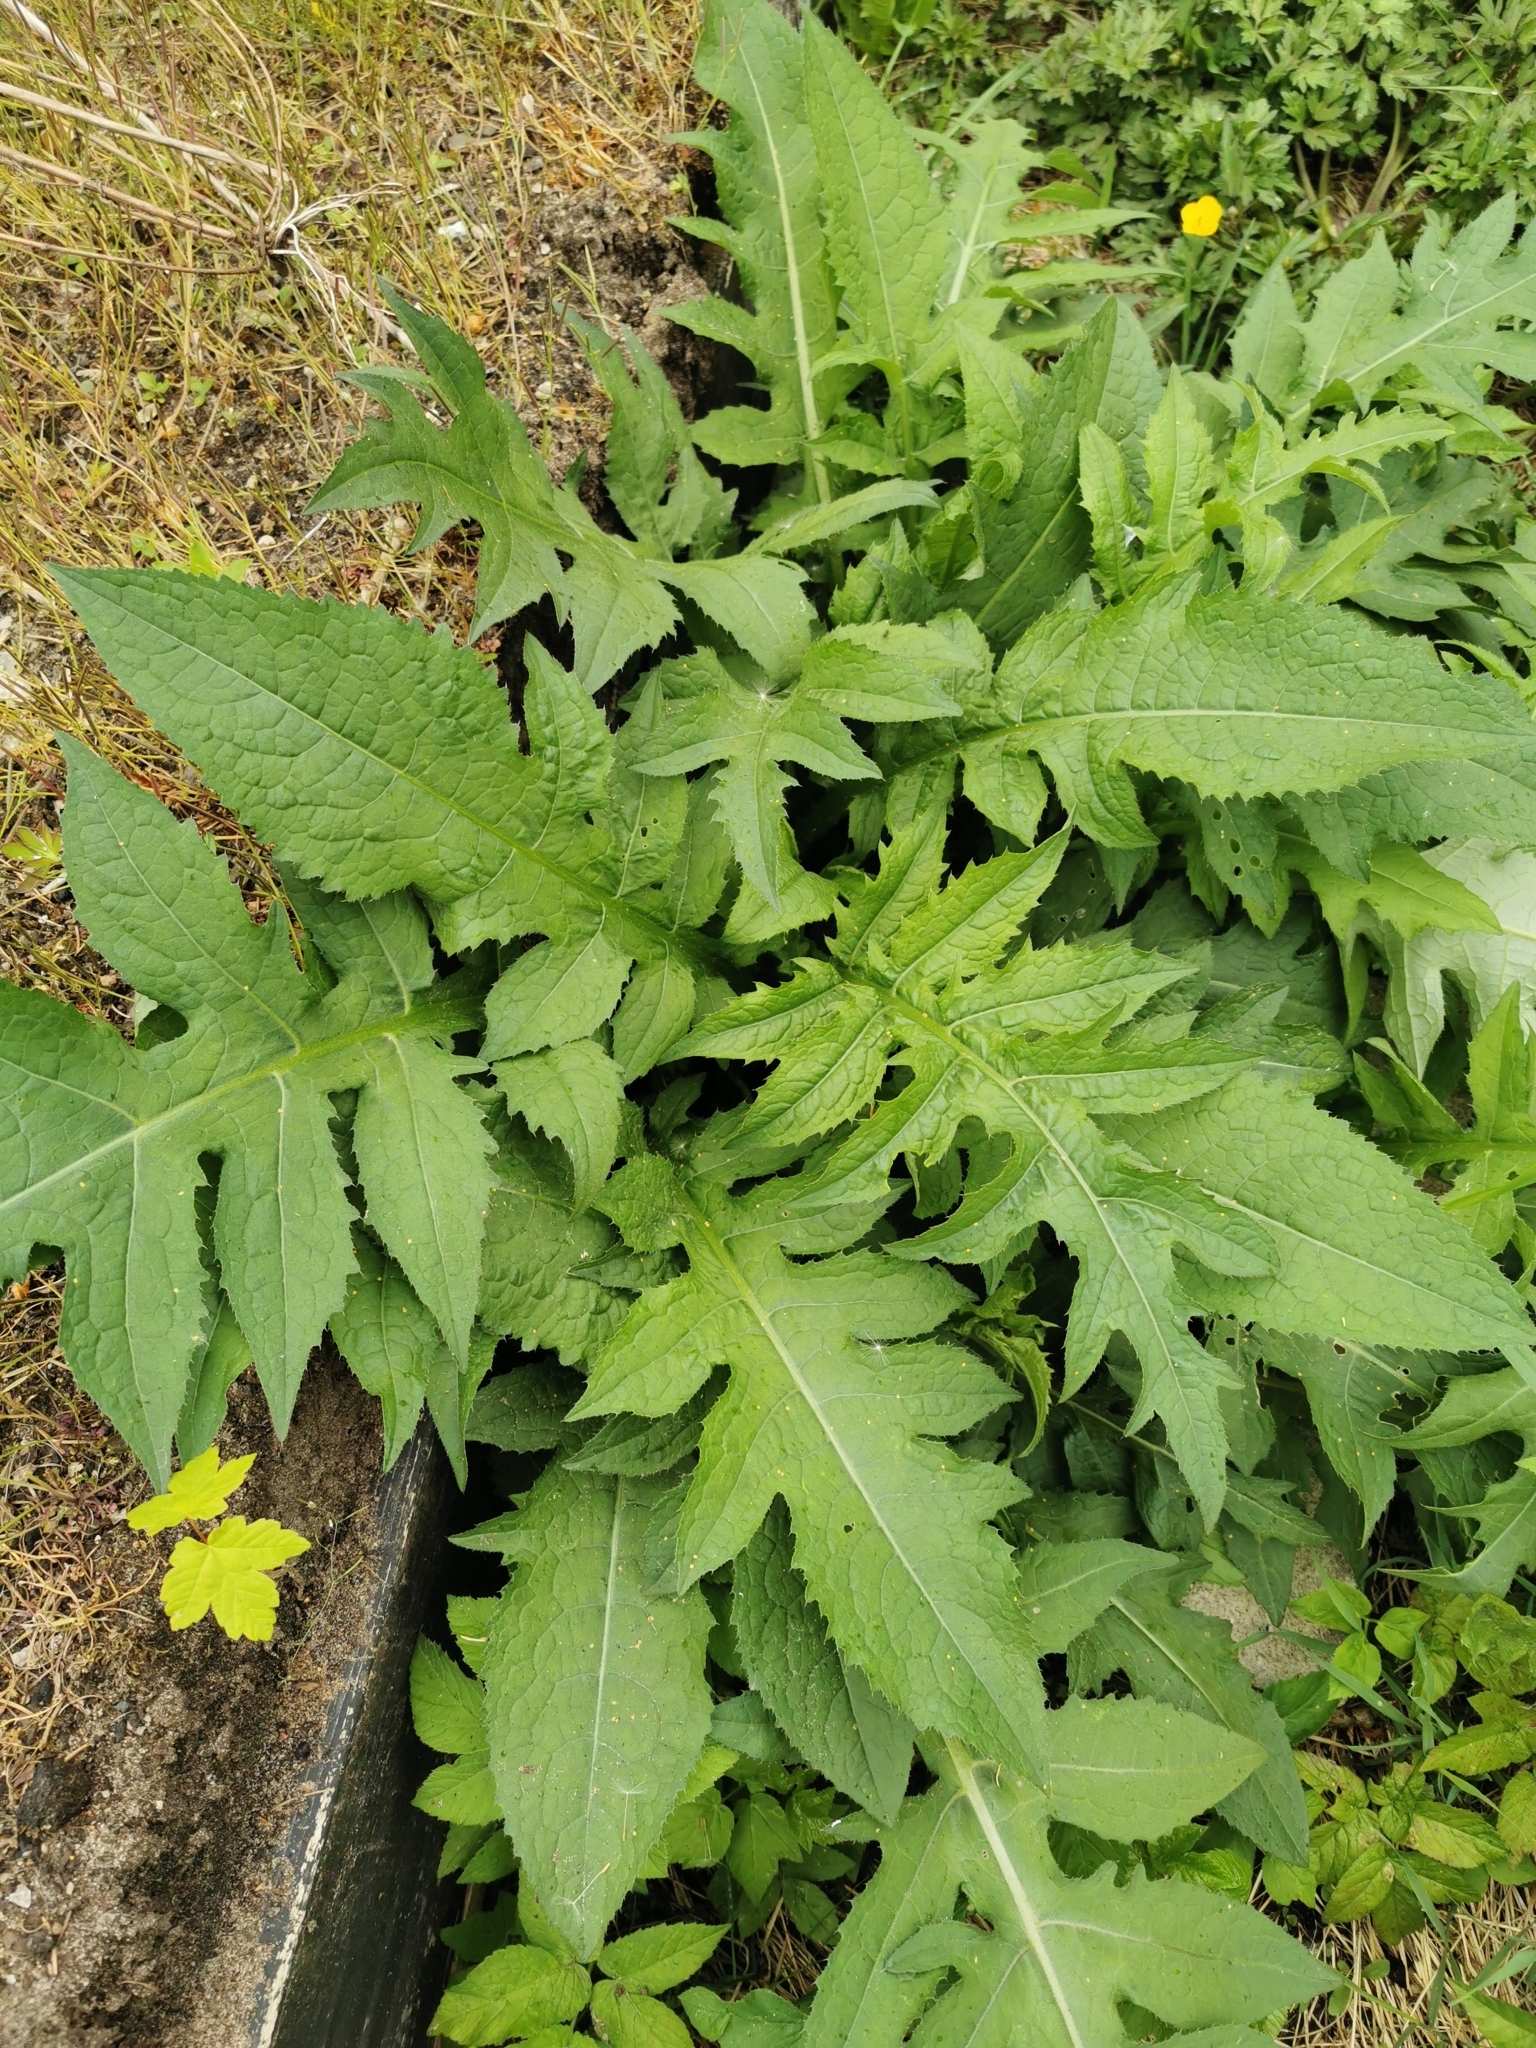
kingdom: Plantae
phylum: Tracheophyta
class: Magnoliopsida
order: Asterales
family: Asteraceae
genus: Cirsium
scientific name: Cirsium oleraceum
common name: Cabbage thistle
